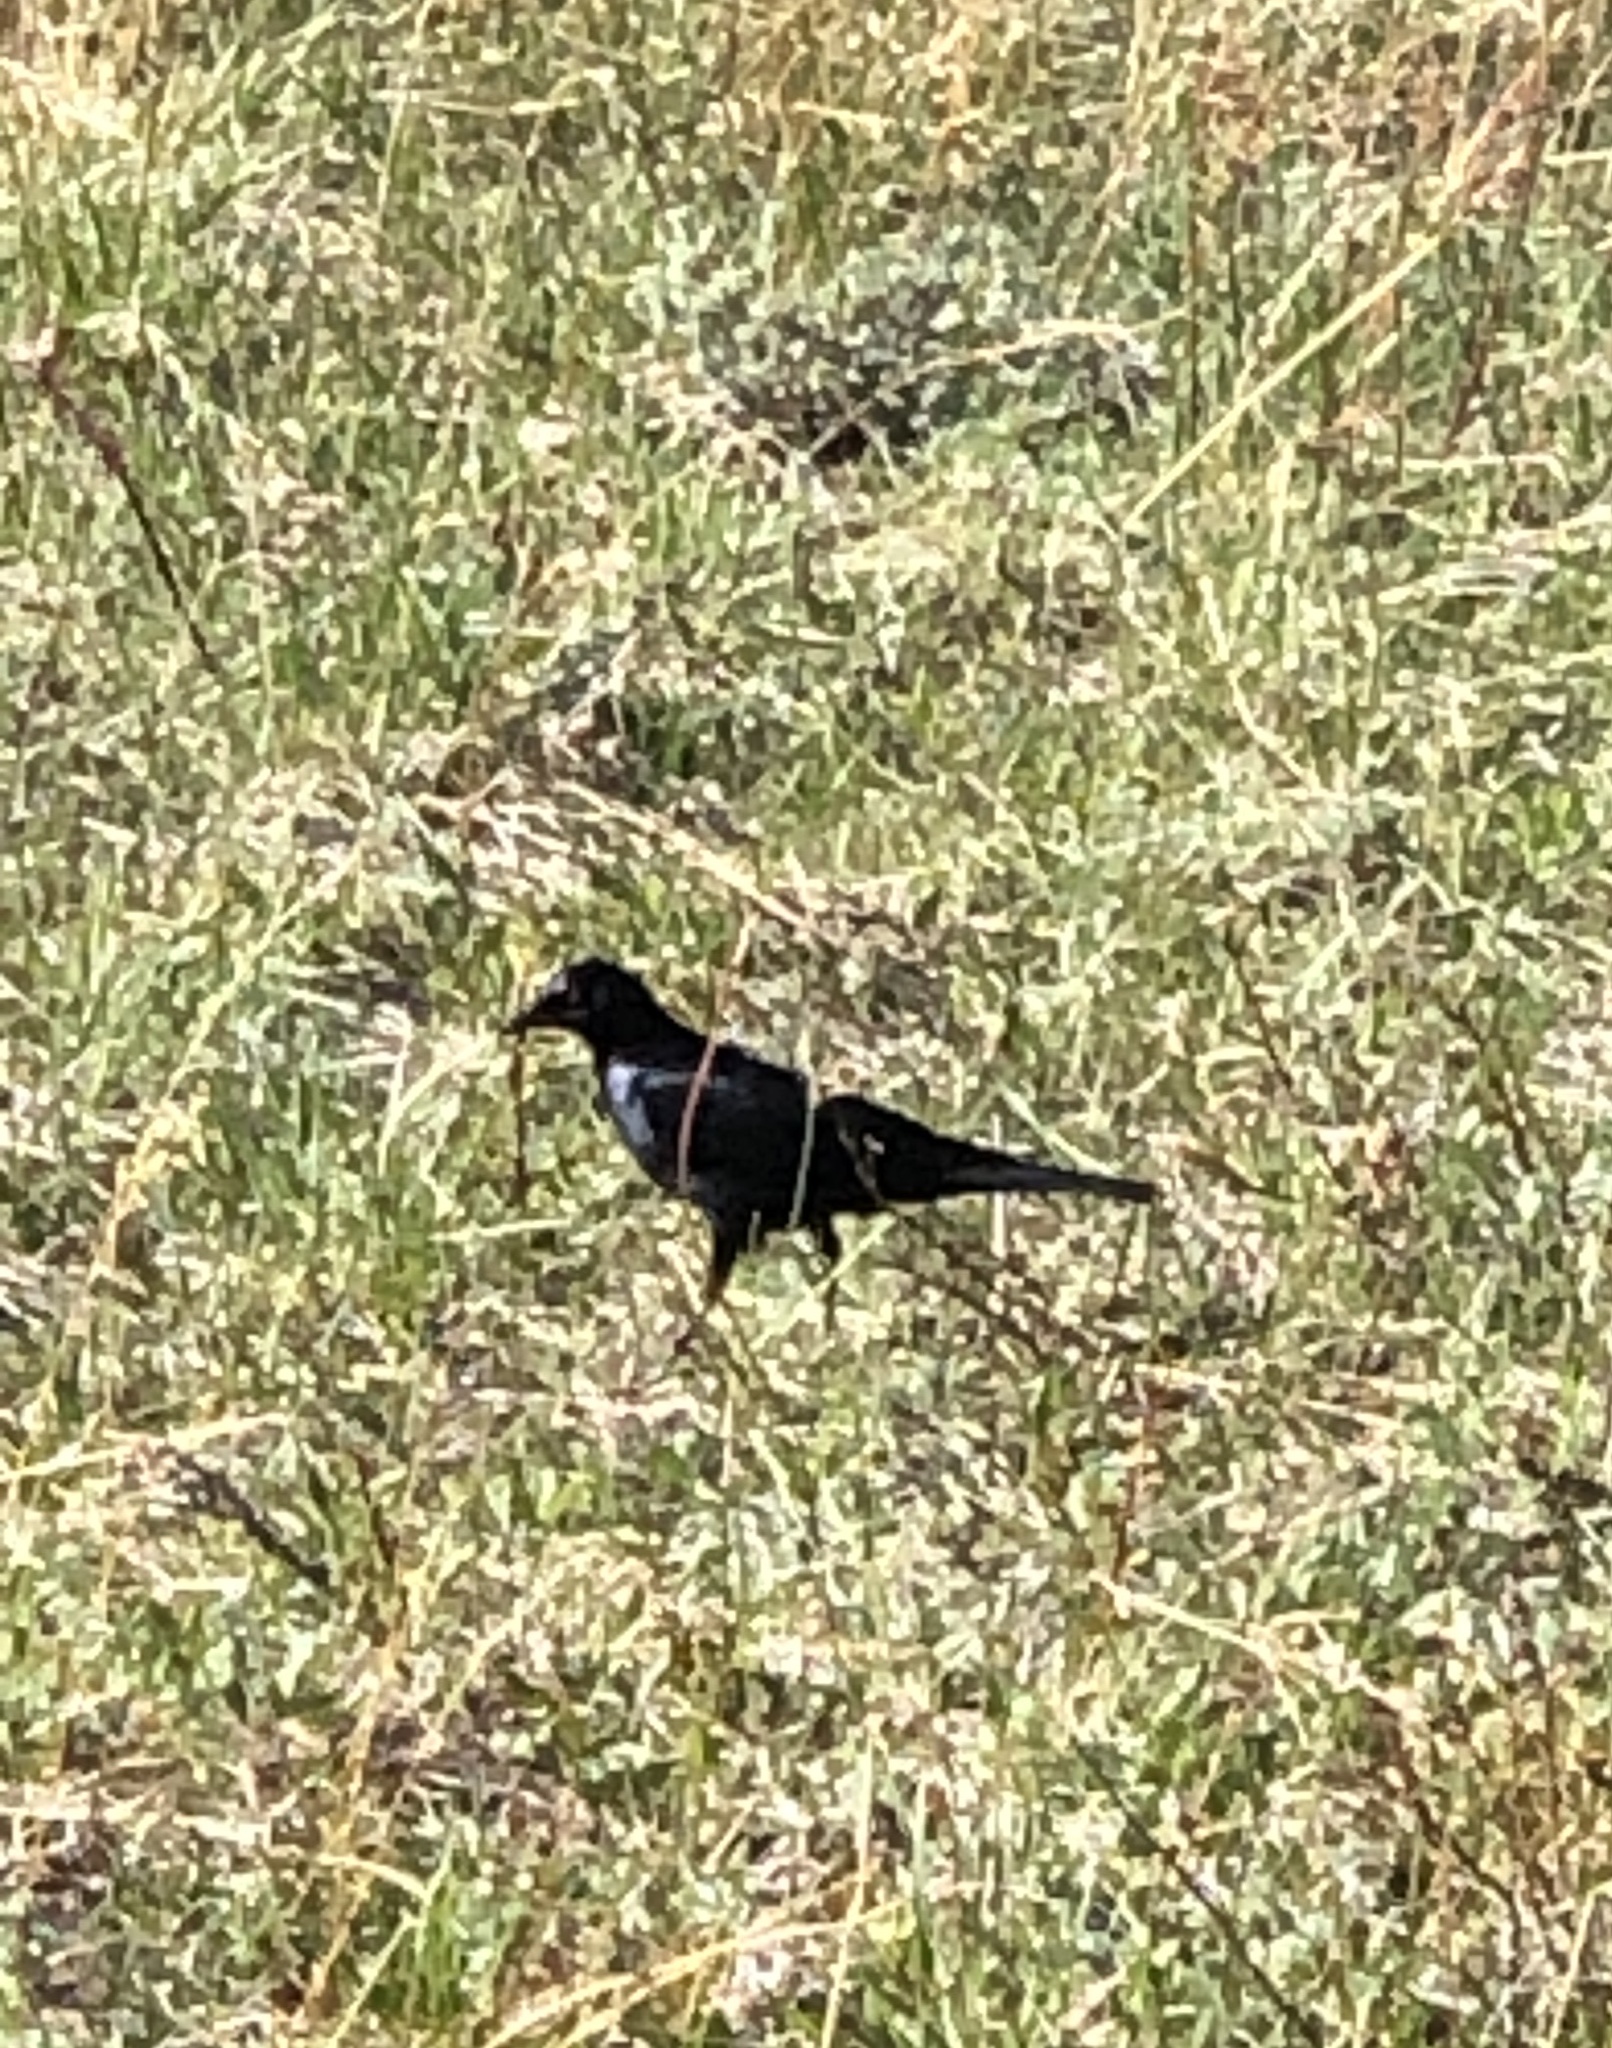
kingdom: Animalia
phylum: Chordata
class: Aves
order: Passeriformes
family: Icteridae
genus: Euphagus
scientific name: Euphagus cyanocephalus
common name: Brewer's blackbird
